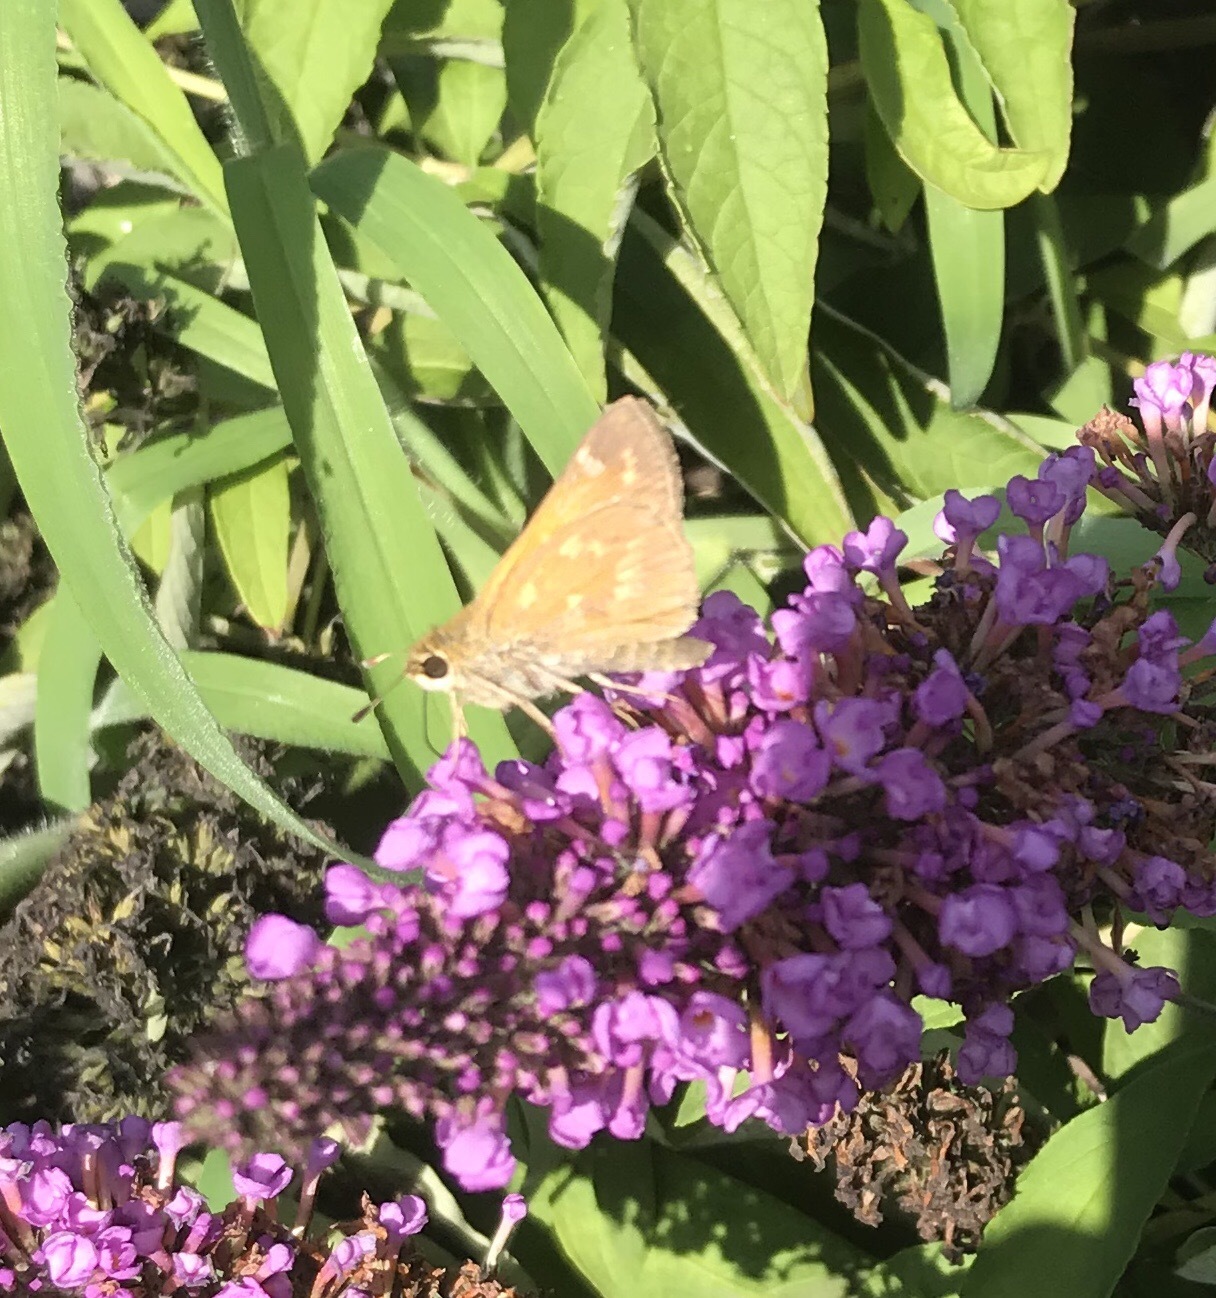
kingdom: Animalia
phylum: Arthropoda
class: Insecta
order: Lepidoptera
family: Hesperiidae
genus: Atalopedes
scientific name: Atalopedes
